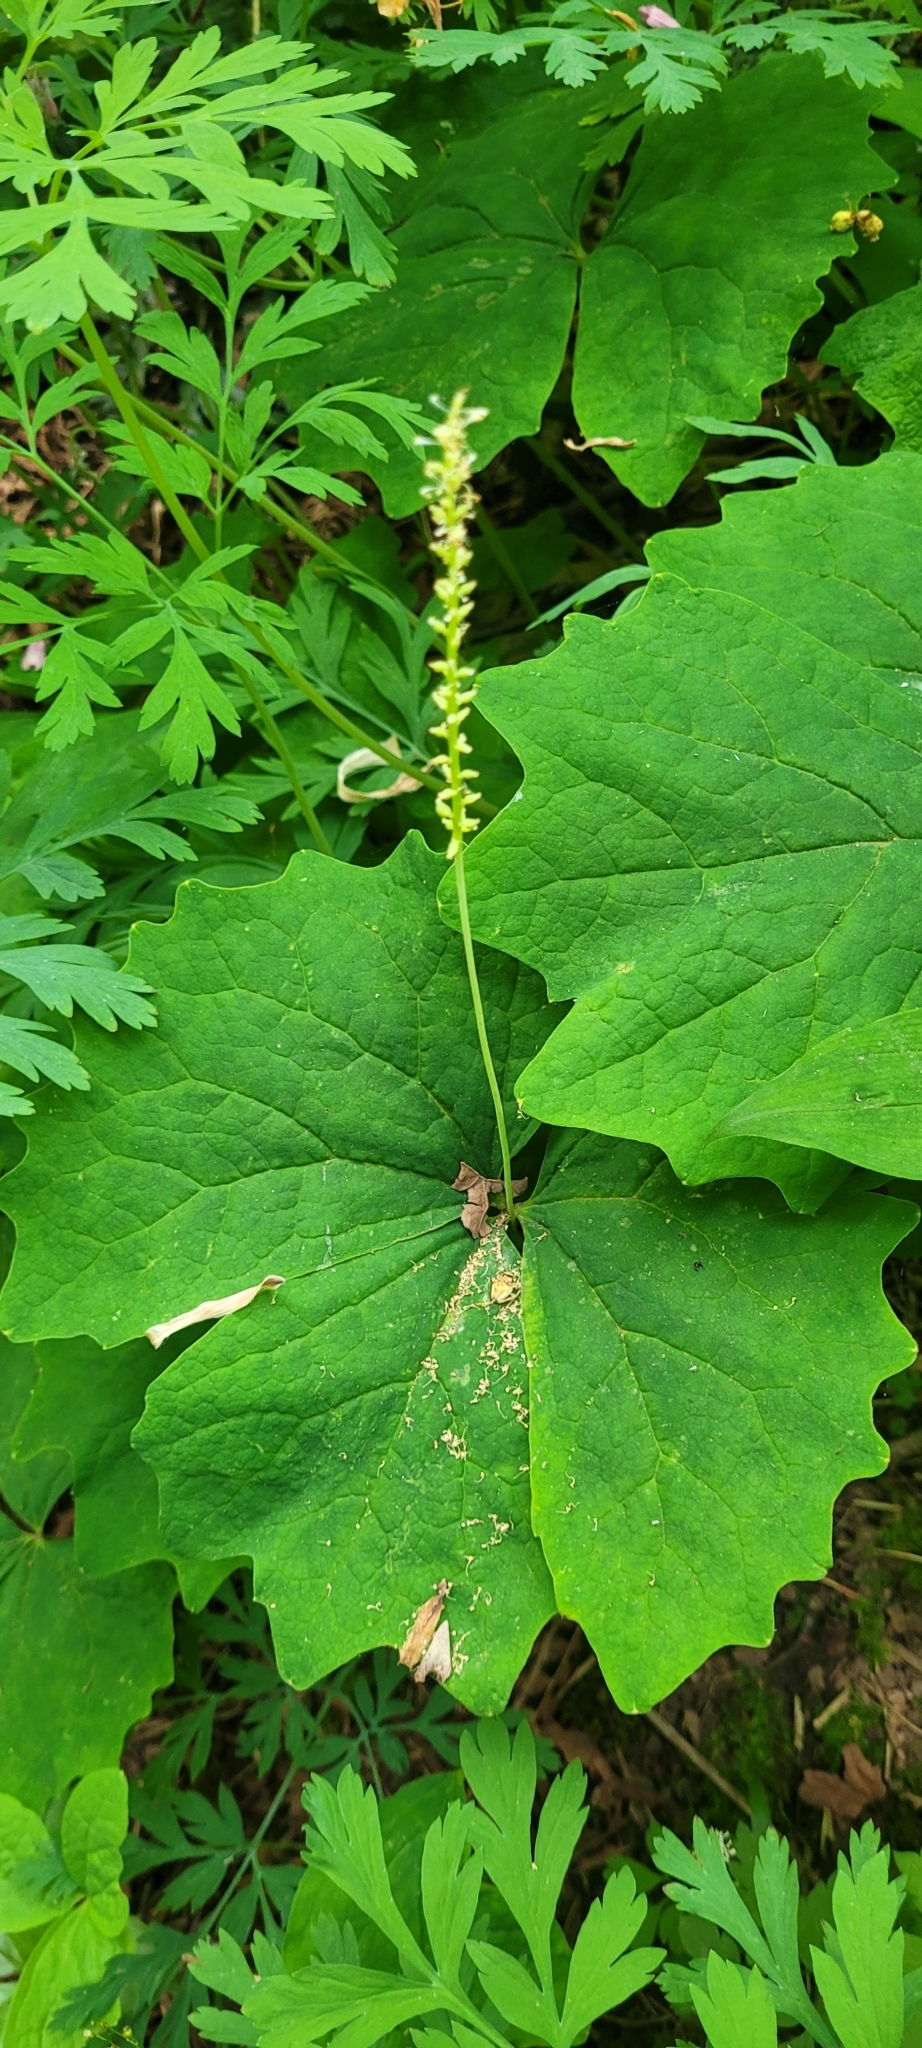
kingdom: Plantae
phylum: Tracheophyta
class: Magnoliopsida
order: Ranunculales
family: Berberidaceae
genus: Achlys
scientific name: Achlys triphylla
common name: Vanilla-leaf
